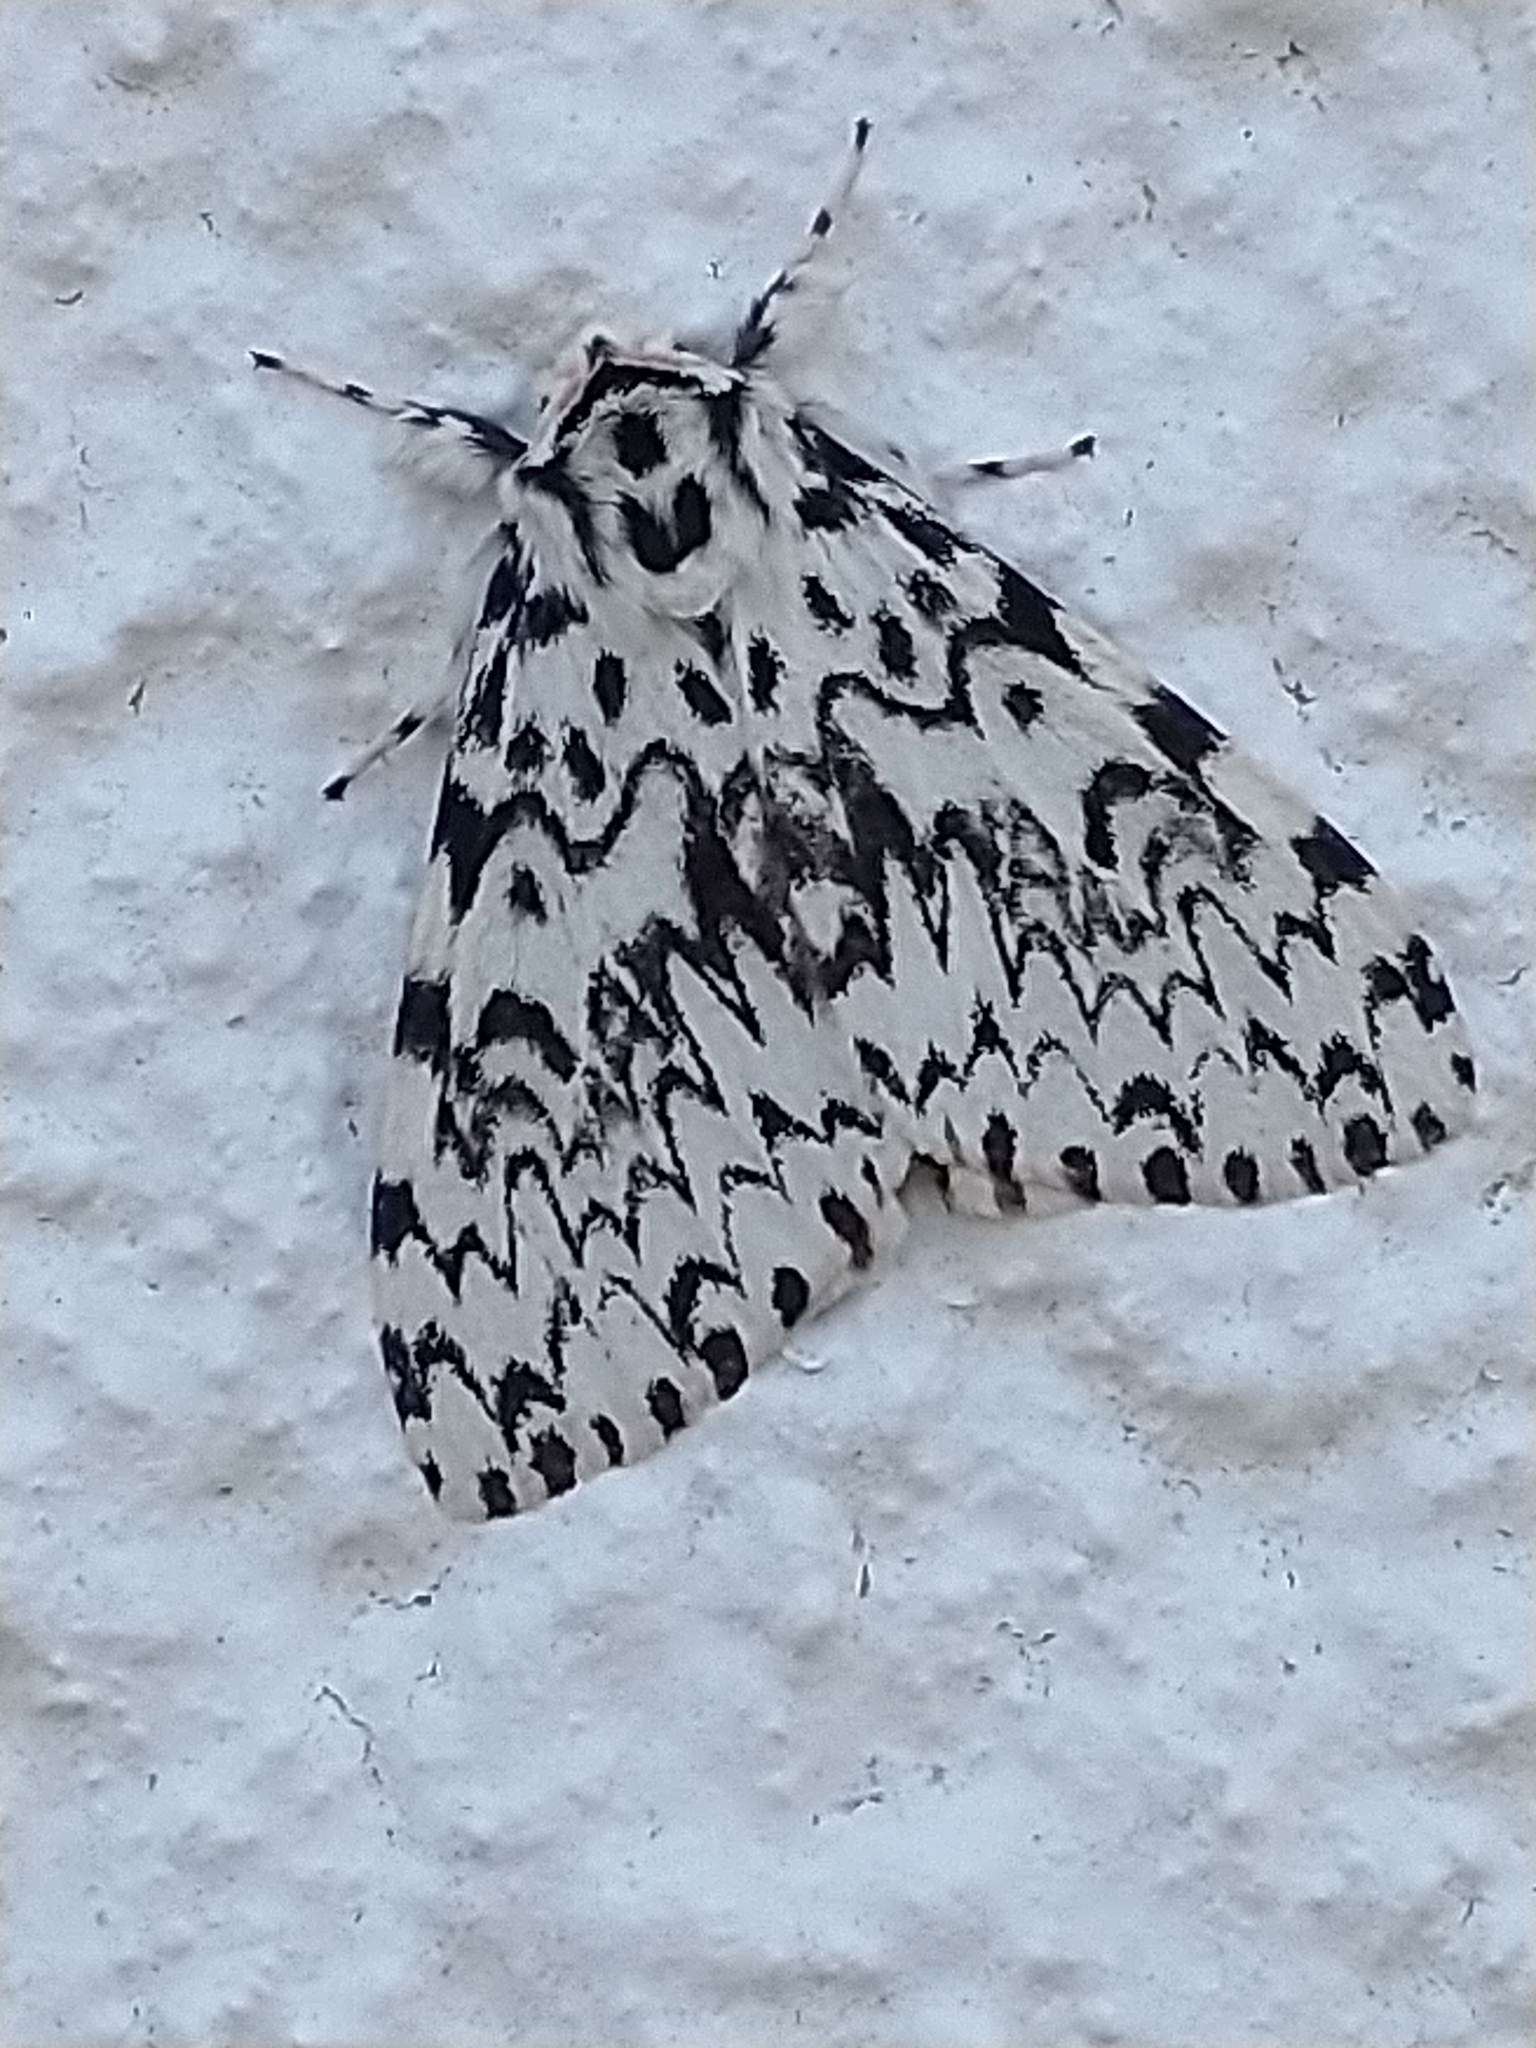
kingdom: Animalia
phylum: Arthropoda
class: Insecta
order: Lepidoptera
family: Erebidae
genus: Lymantria
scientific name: Lymantria monacha
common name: Black arches
